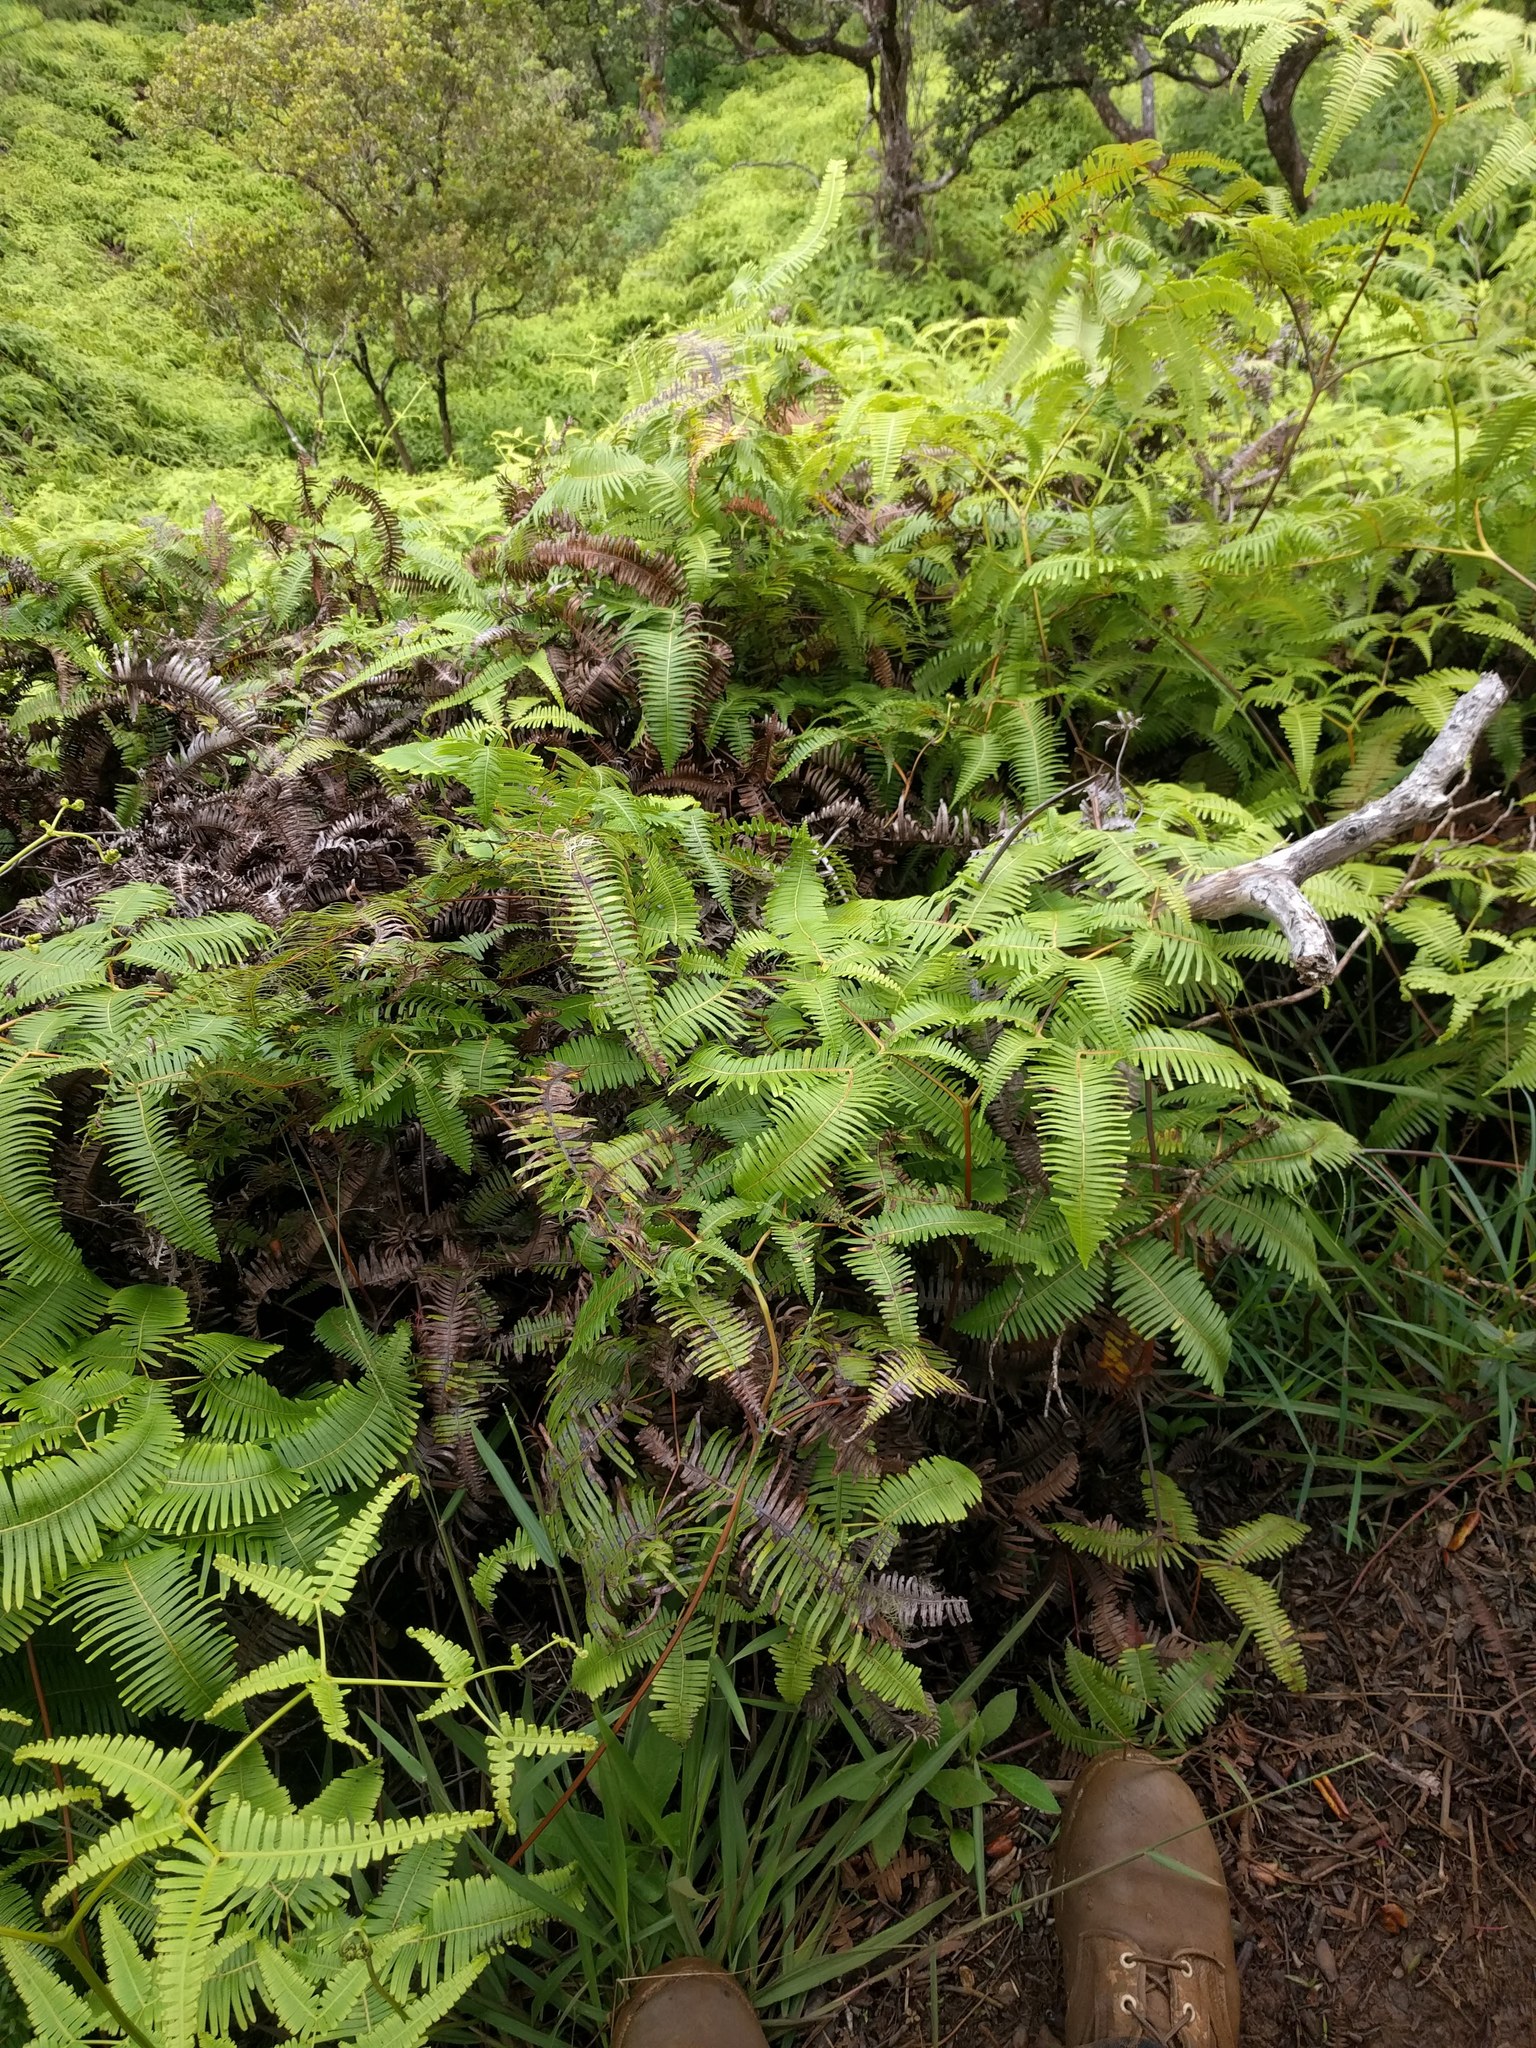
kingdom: Plantae
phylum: Tracheophyta
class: Polypodiopsida
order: Gleicheniales
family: Gleicheniaceae
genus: Dicranopteris
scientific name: Dicranopteris linearis
